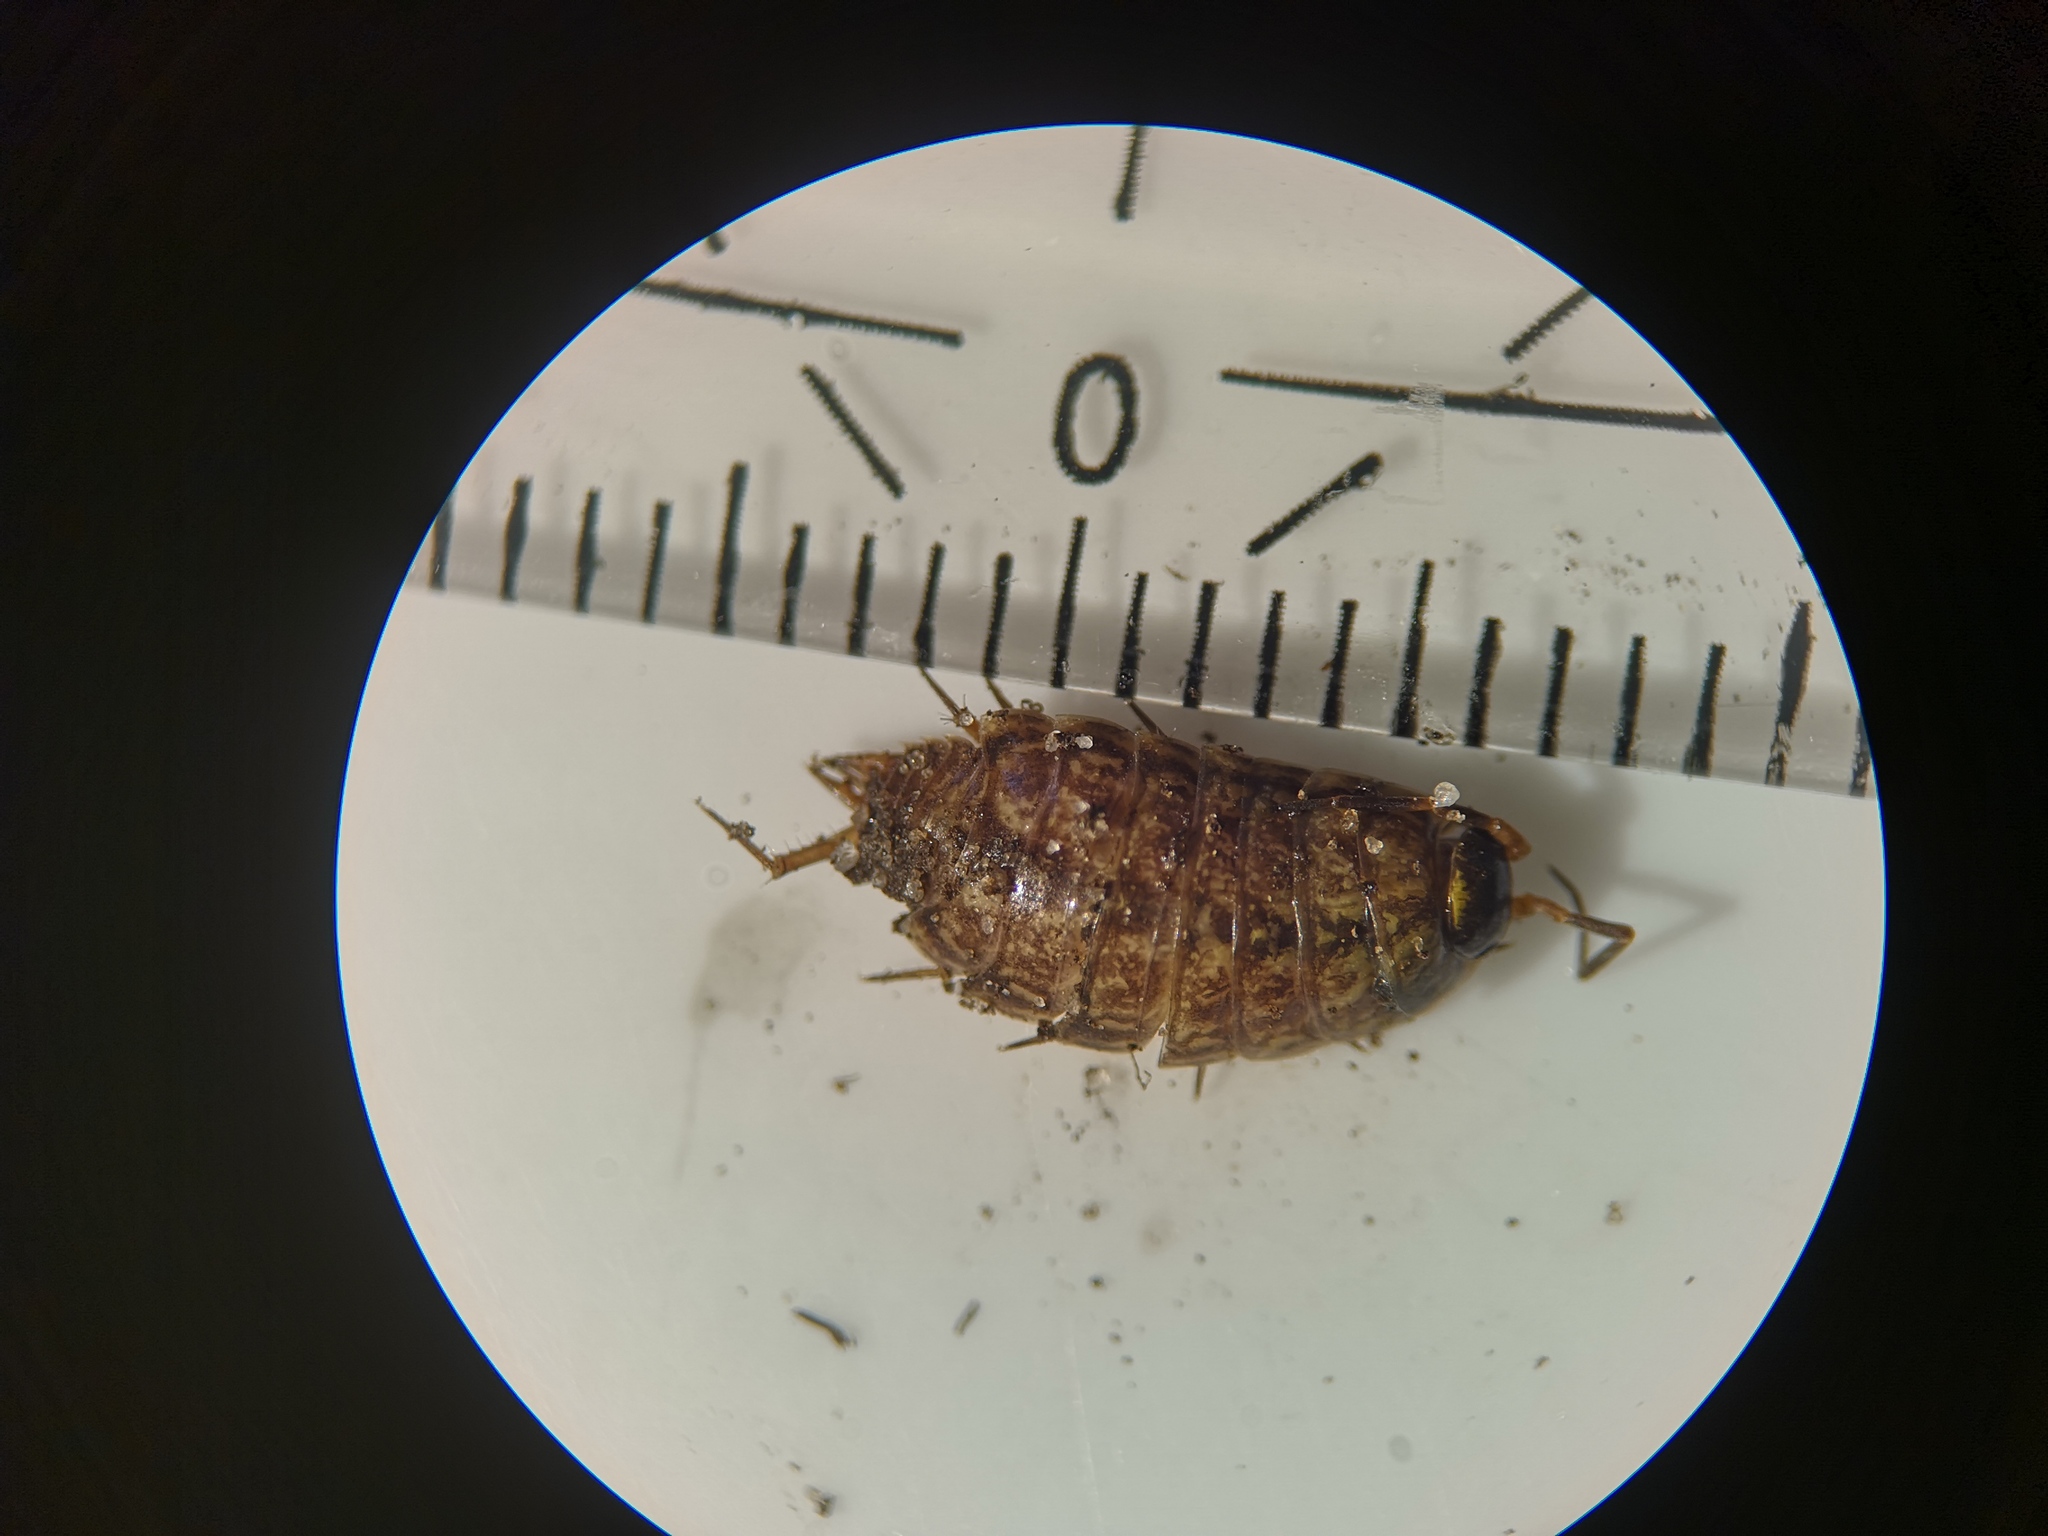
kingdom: Animalia
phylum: Arthropoda
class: Malacostraca
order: Isopoda
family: Philosciidae
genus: Philoscia
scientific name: Philoscia muscorum
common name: Common striped woodlouse
